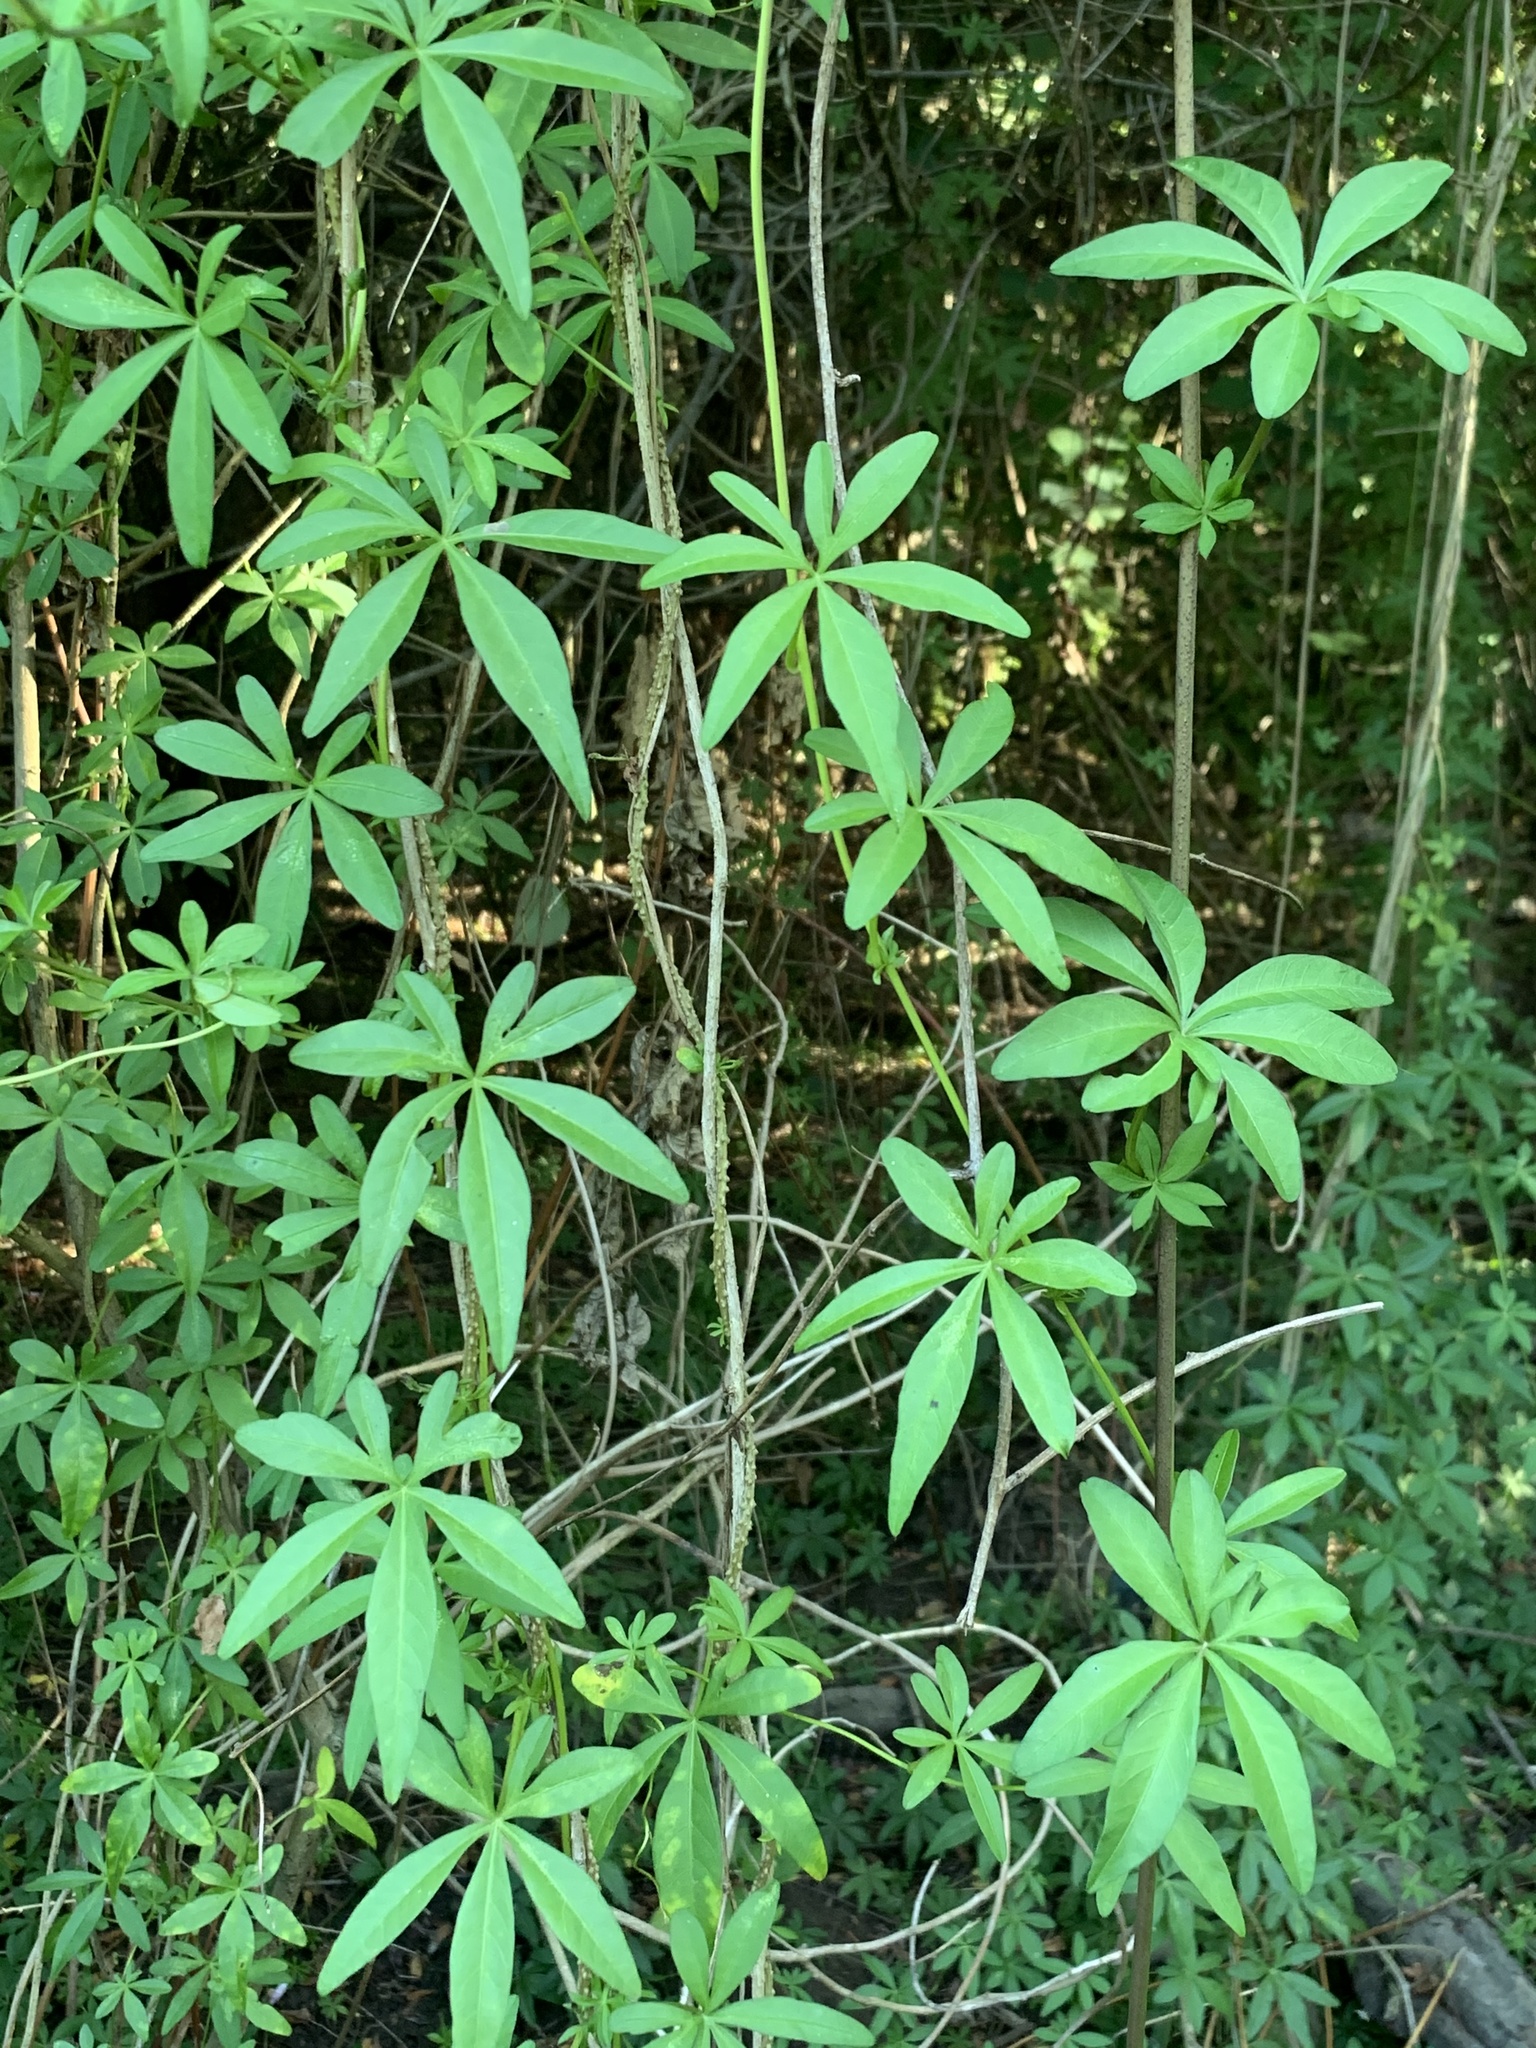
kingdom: Plantae
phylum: Tracheophyta
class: Magnoliopsida
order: Solanales
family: Convolvulaceae
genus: Ipomoea
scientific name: Ipomoea cairica
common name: Mile a minute vine
